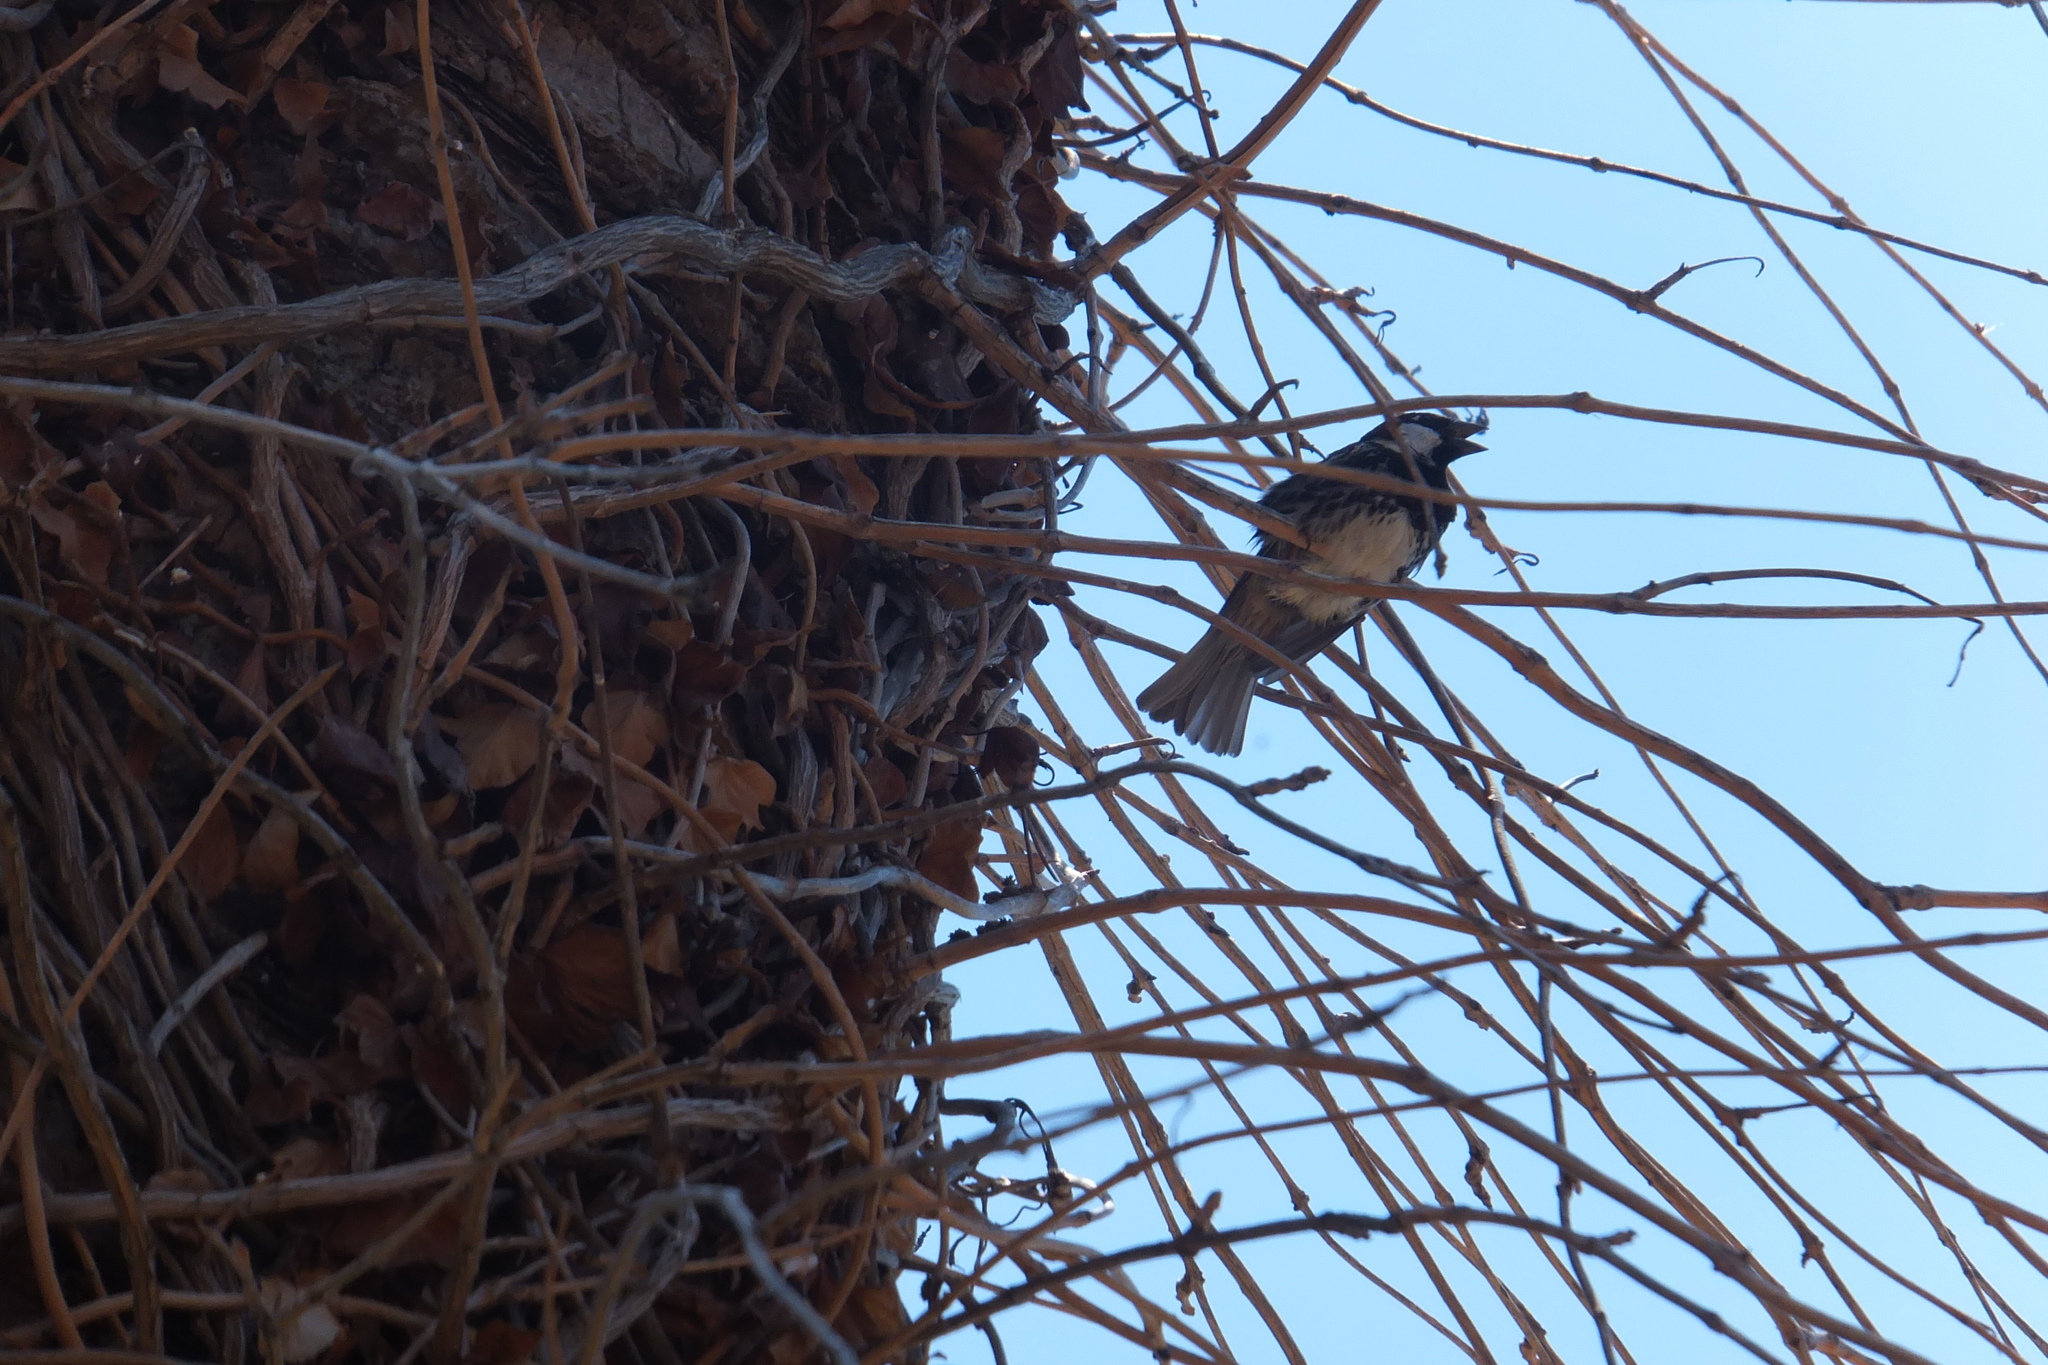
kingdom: Animalia
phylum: Chordata
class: Aves
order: Passeriformes
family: Passeridae
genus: Passer
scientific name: Passer hispaniolensis
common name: Spanish sparrow
